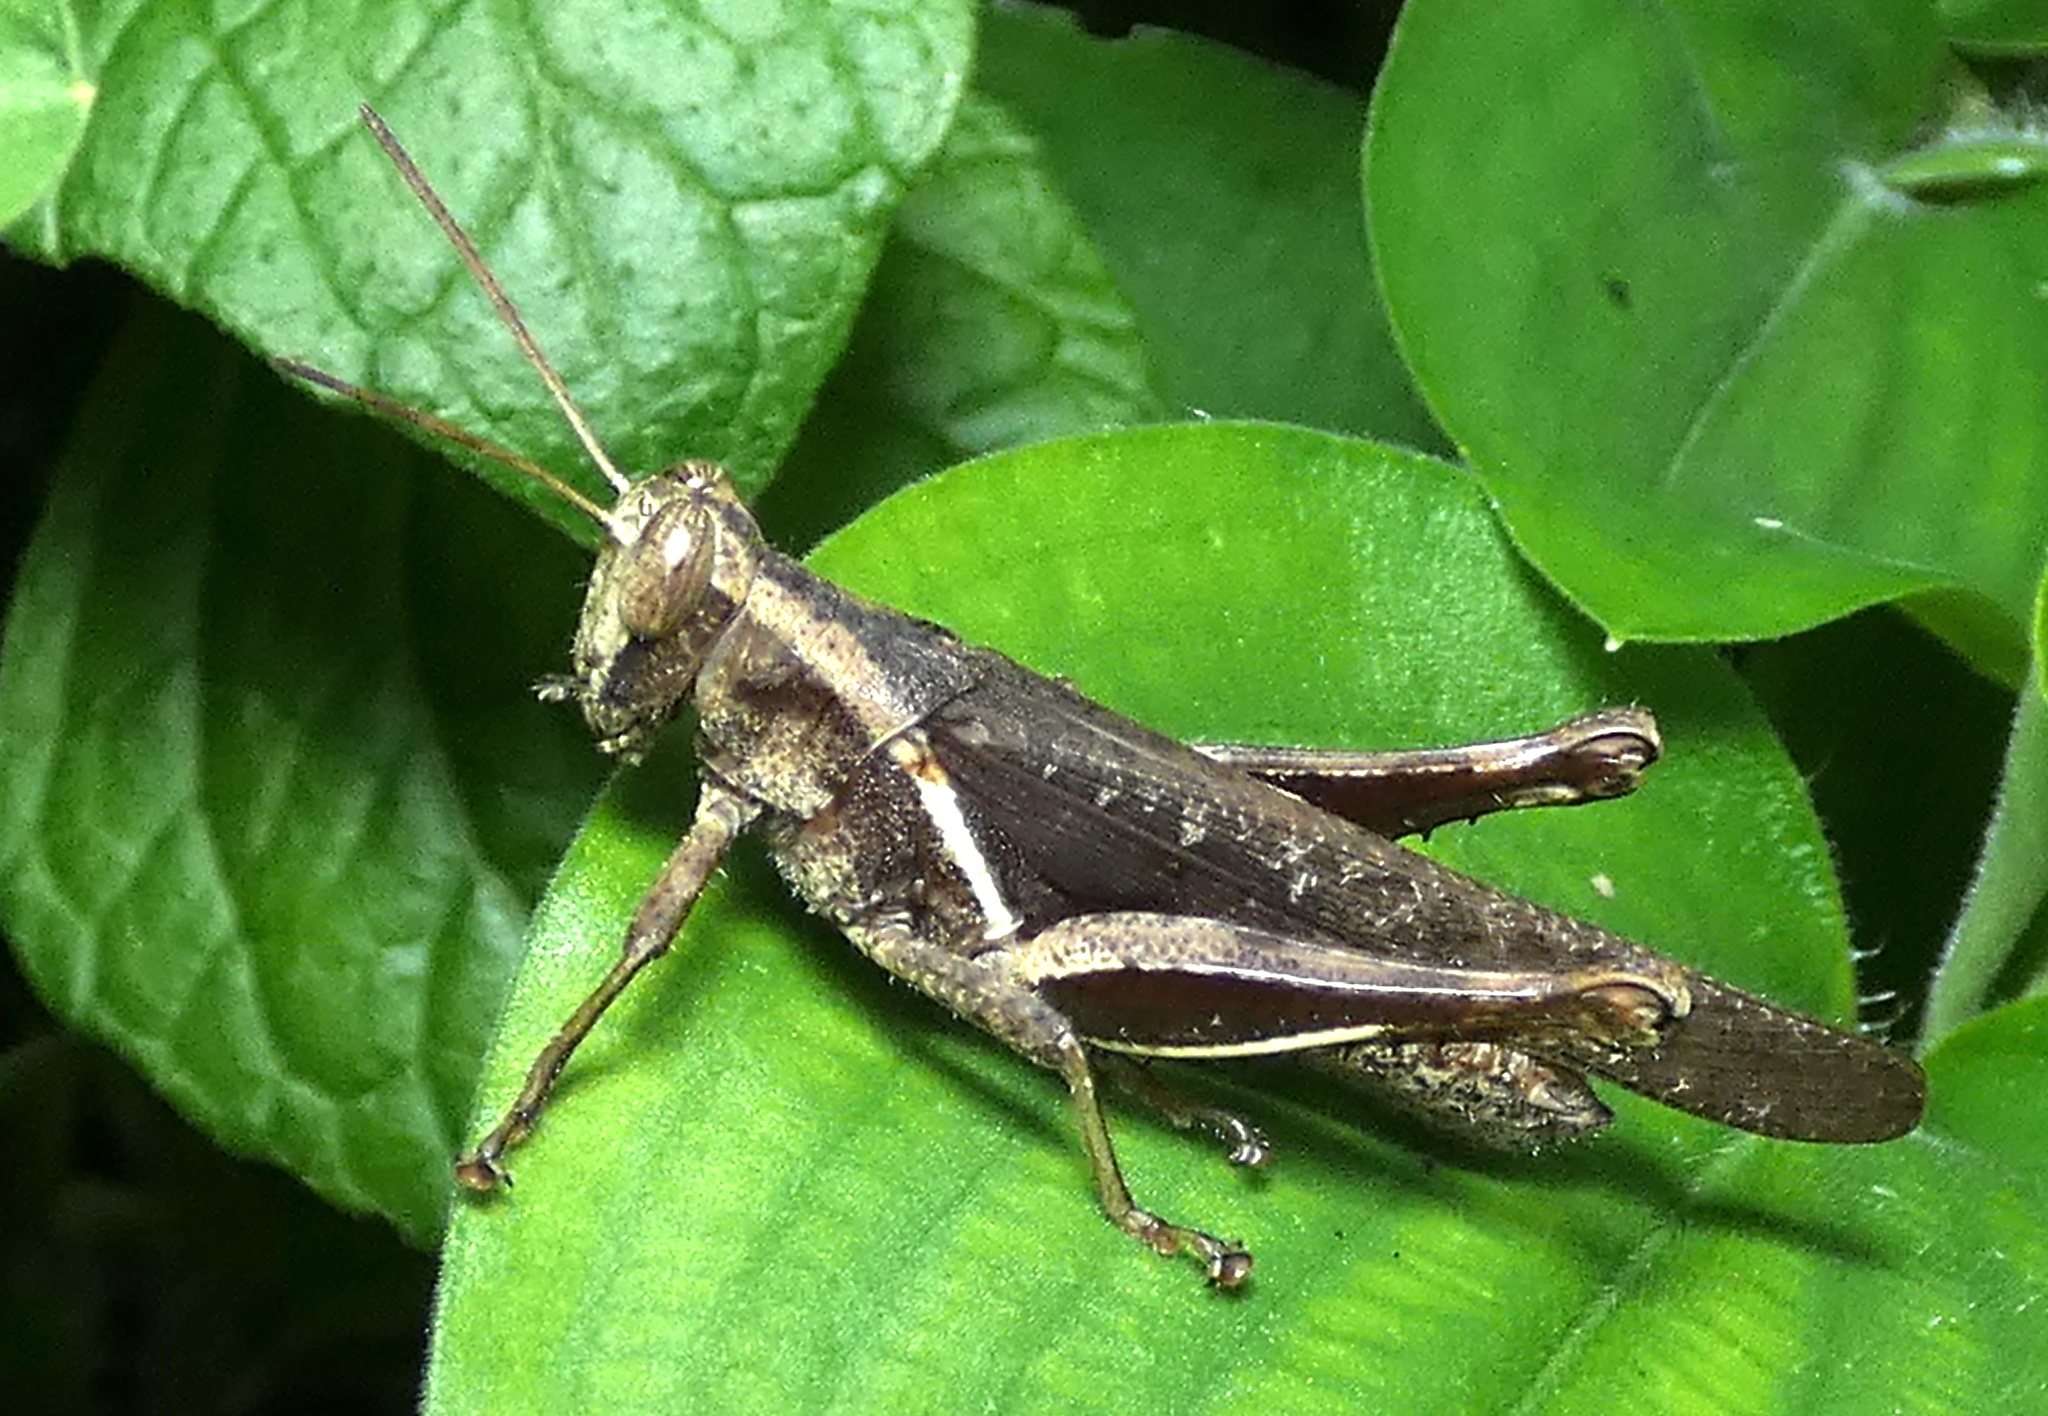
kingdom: Animalia
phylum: Arthropoda
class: Insecta
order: Orthoptera
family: Acrididae
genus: Abracris
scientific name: Abracris flavolineata
